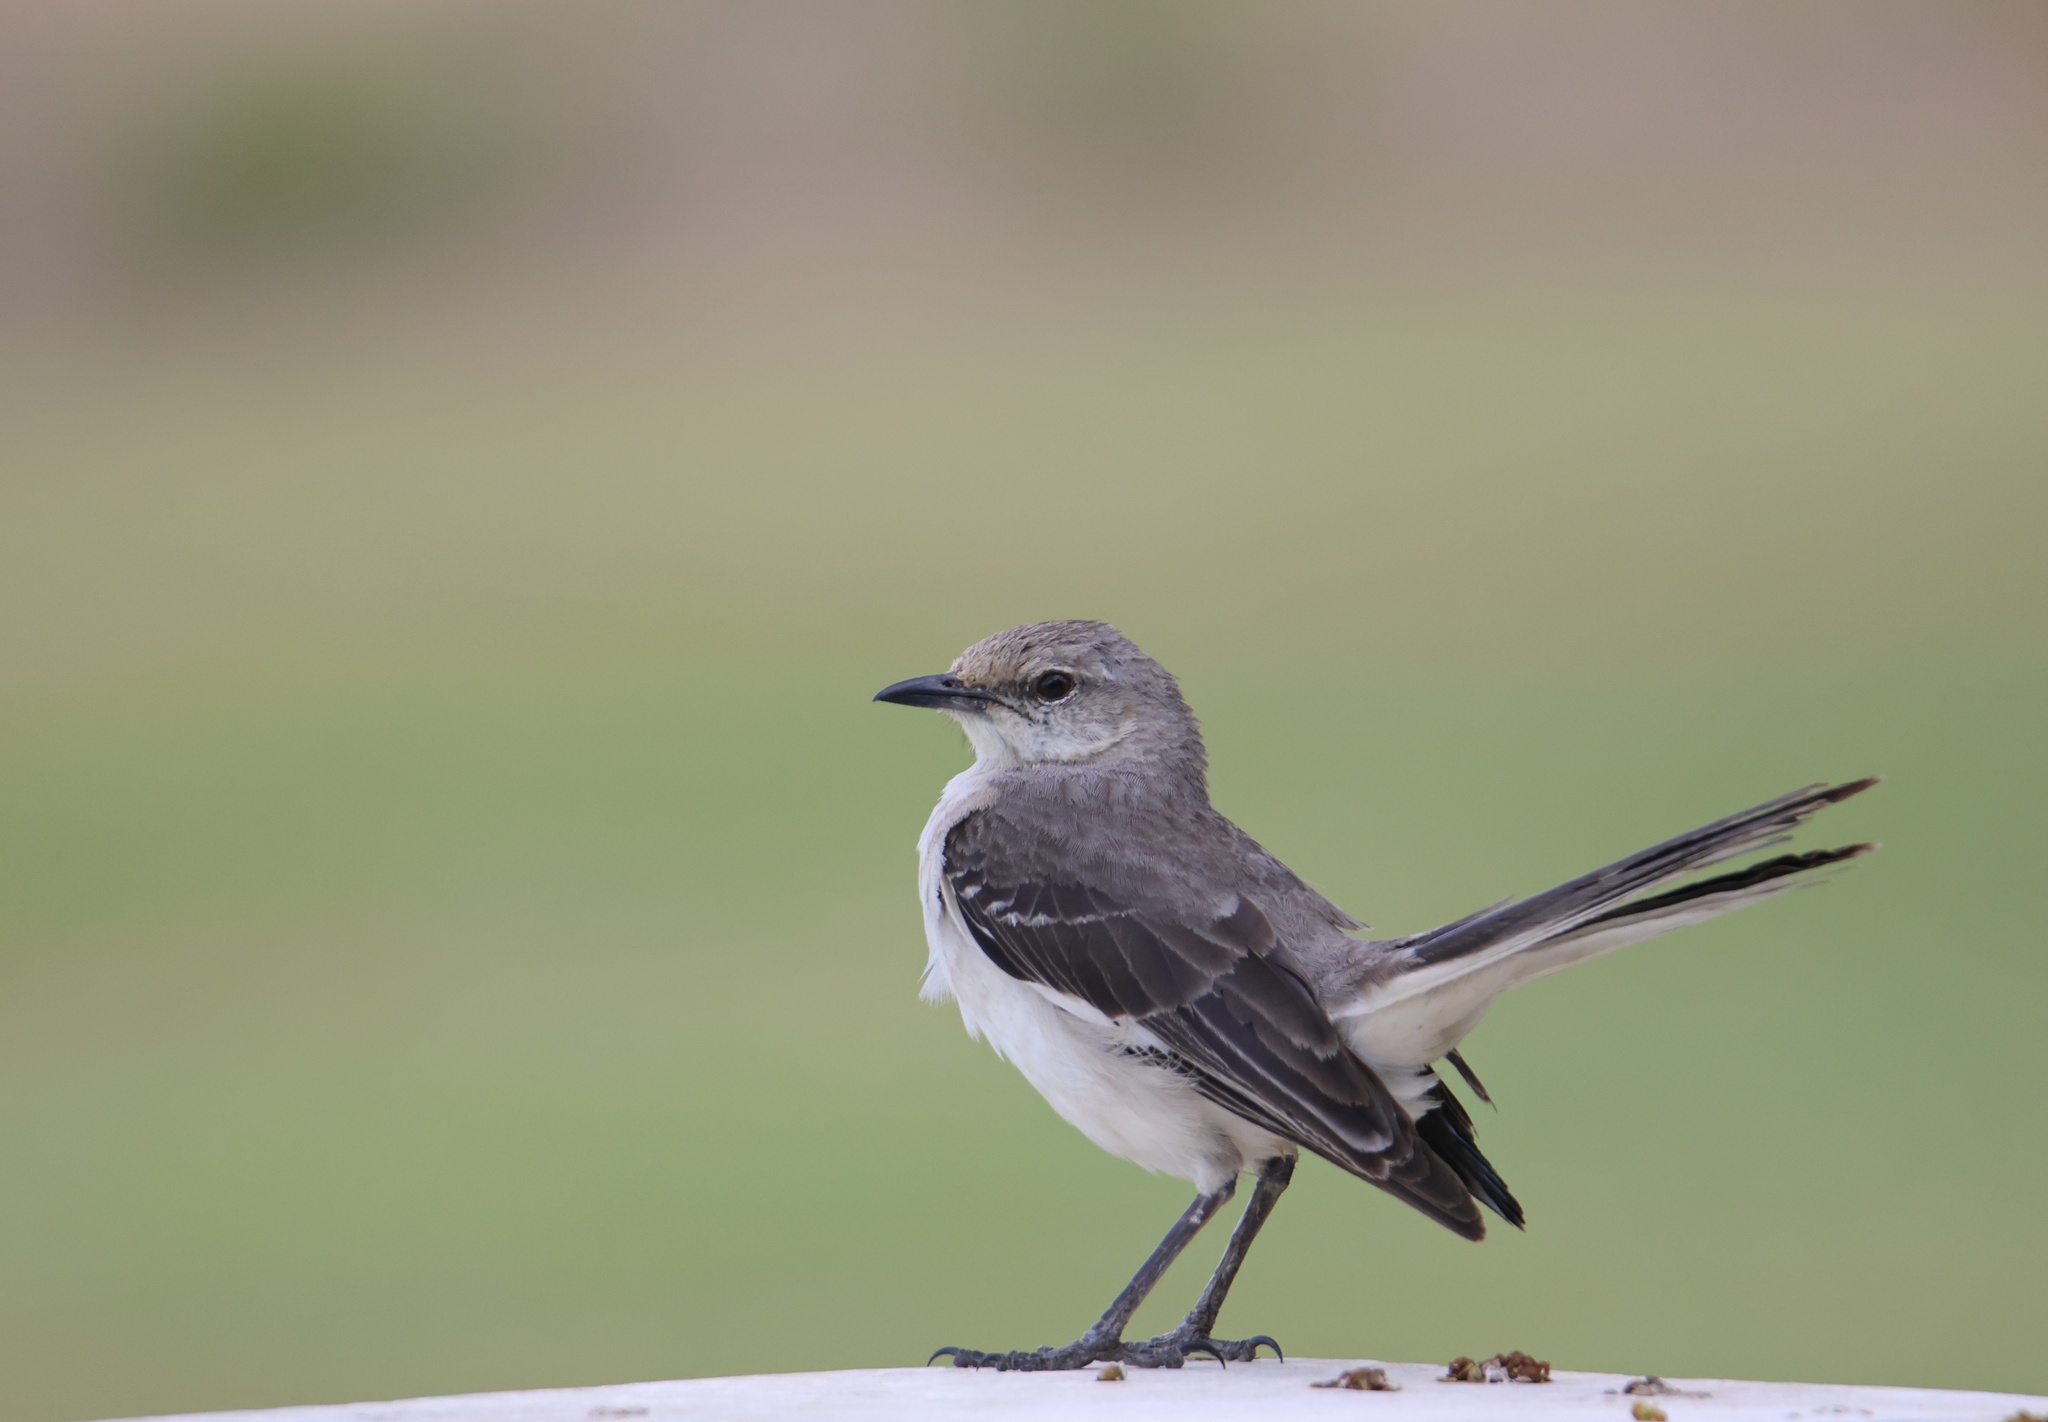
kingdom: Animalia
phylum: Chordata
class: Aves
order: Passeriformes
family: Mimidae
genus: Mimus
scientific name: Mimus polyglottos
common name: Northern mockingbird
